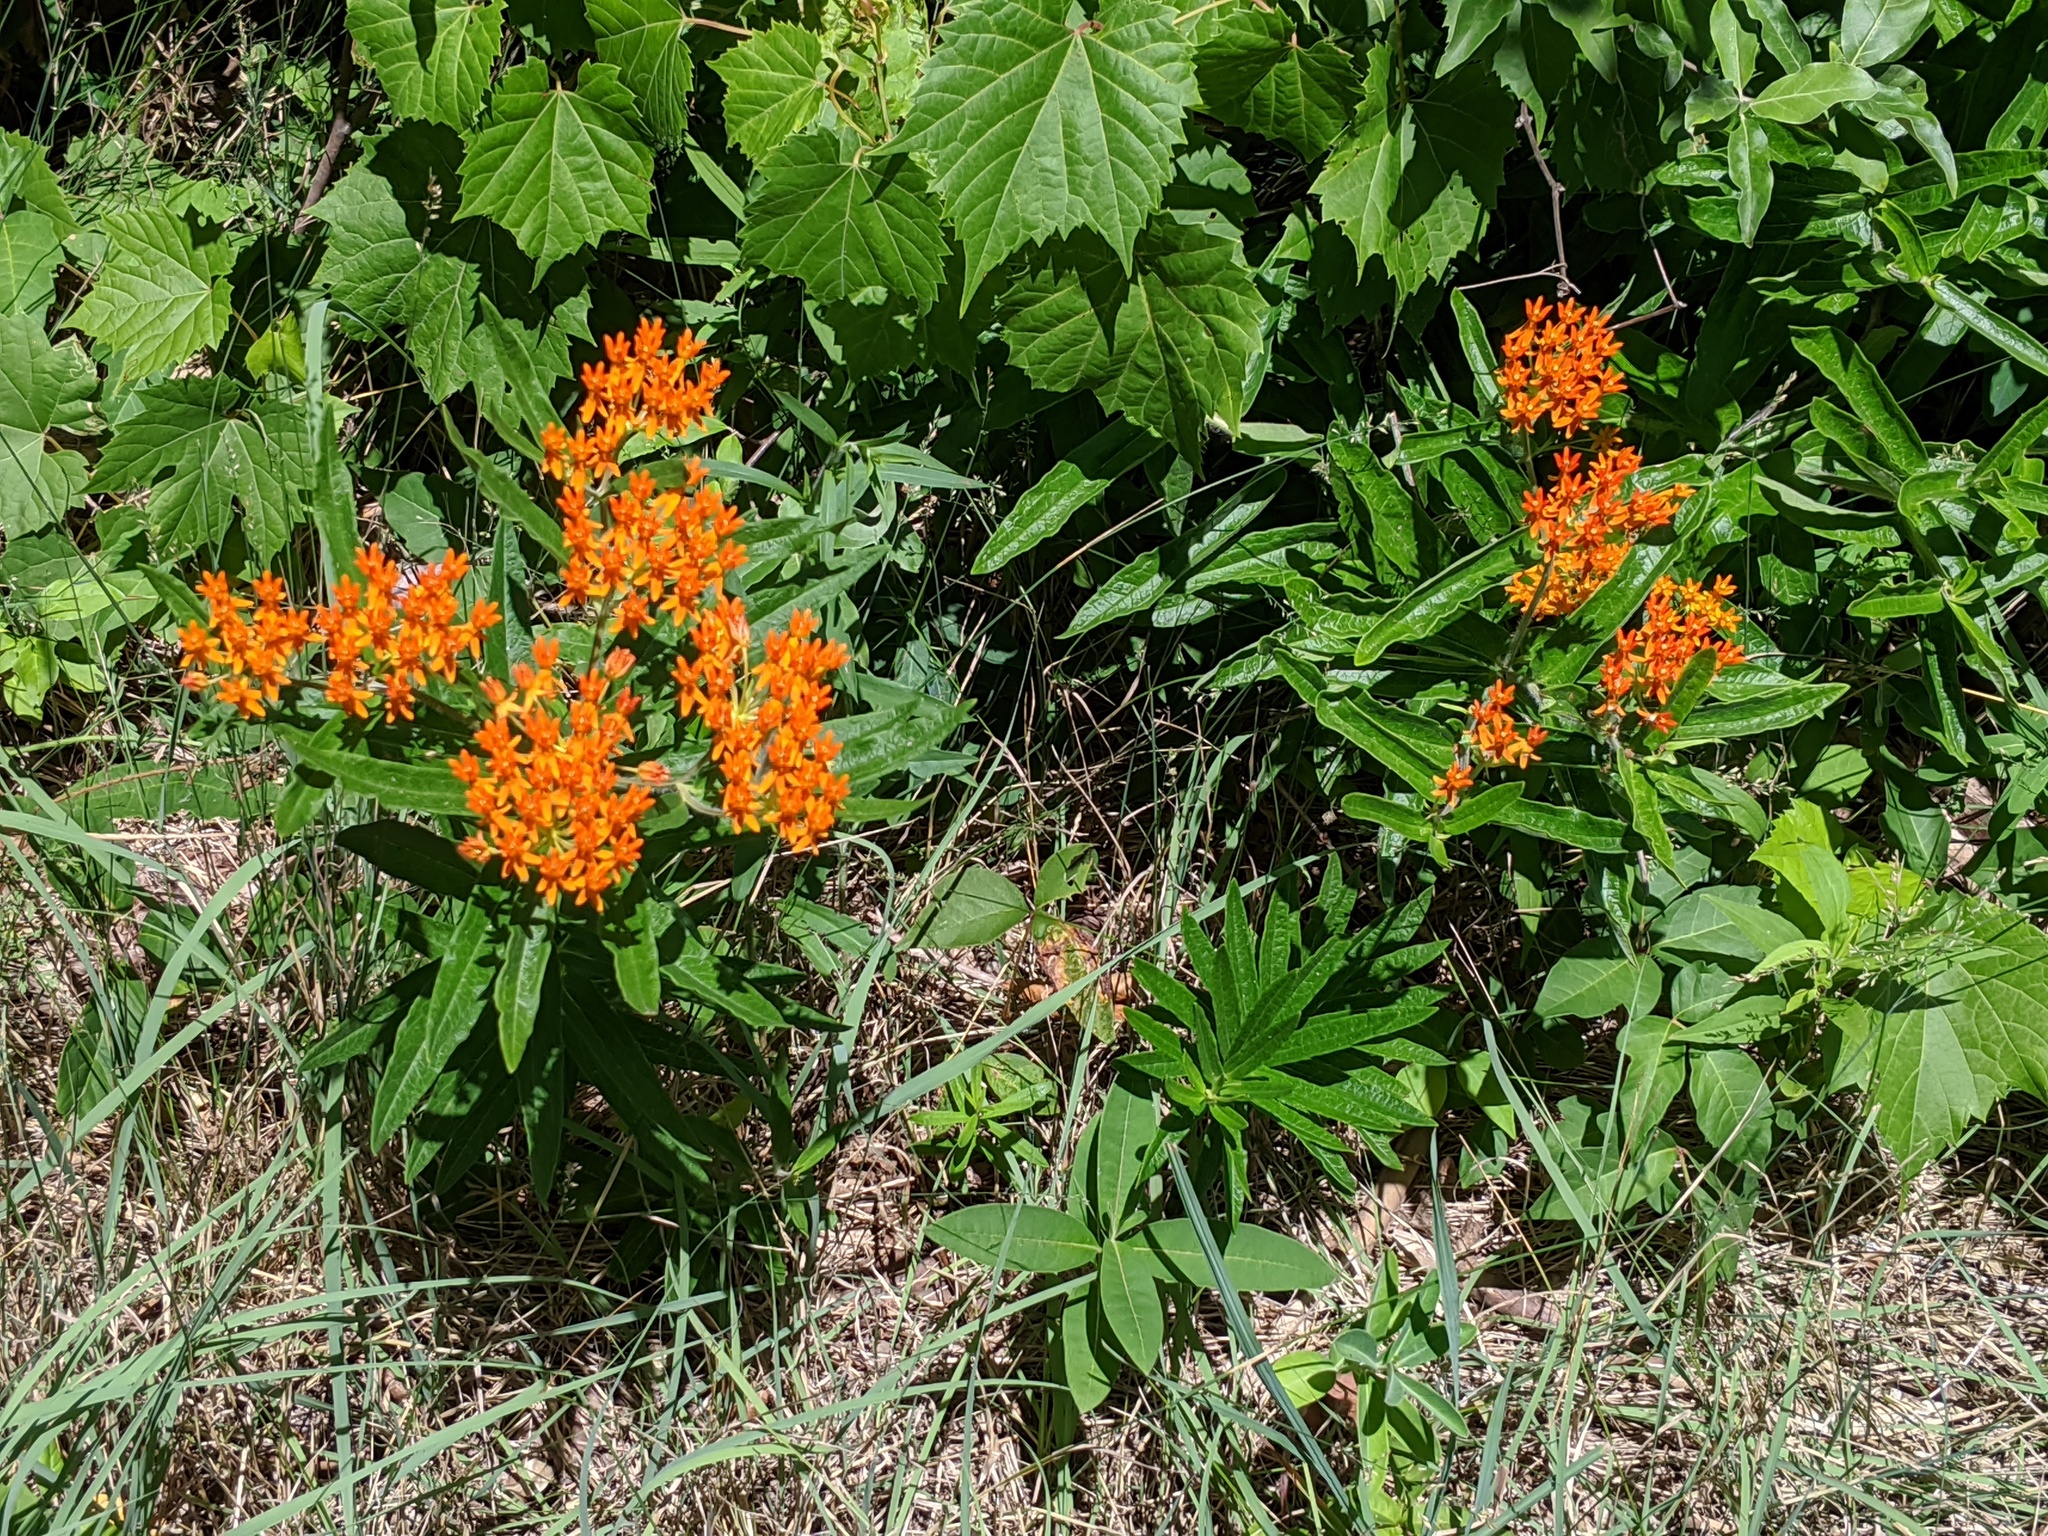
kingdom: Plantae
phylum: Tracheophyta
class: Magnoliopsida
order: Gentianales
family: Apocynaceae
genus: Asclepias
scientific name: Asclepias tuberosa
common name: Butterfly milkweed
